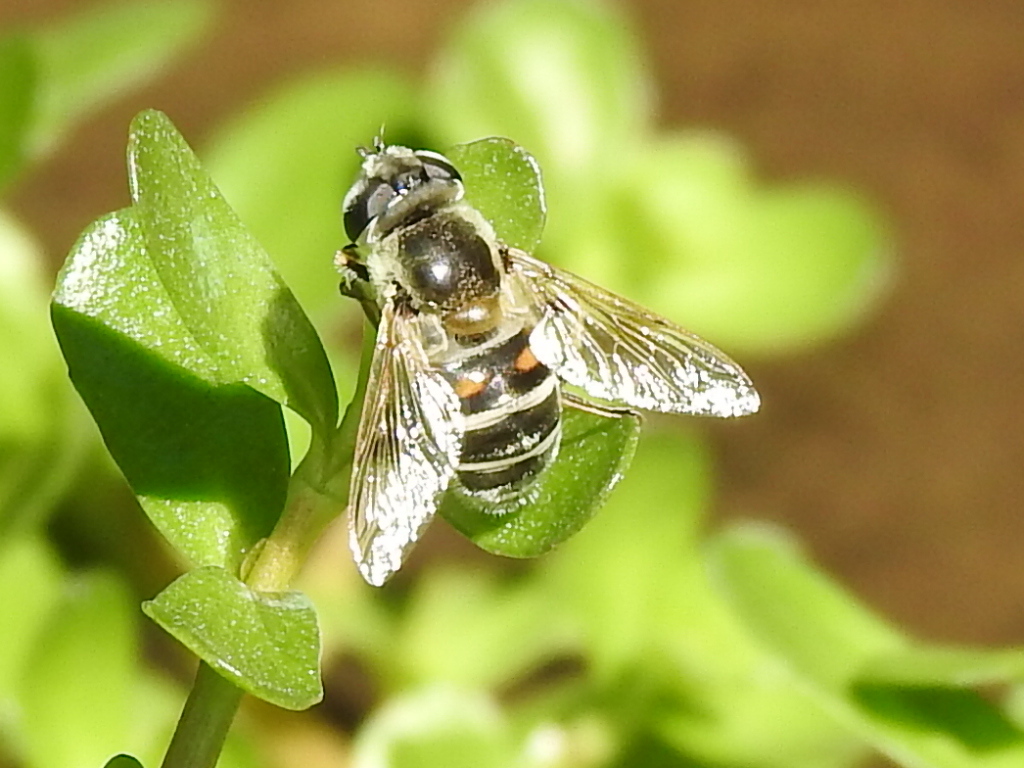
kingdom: Animalia
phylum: Arthropoda
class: Insecta
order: Diptera
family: Syrphidae
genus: Eristalis
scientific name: Eristalis stipator
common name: Yellow-shouldered drone fly
